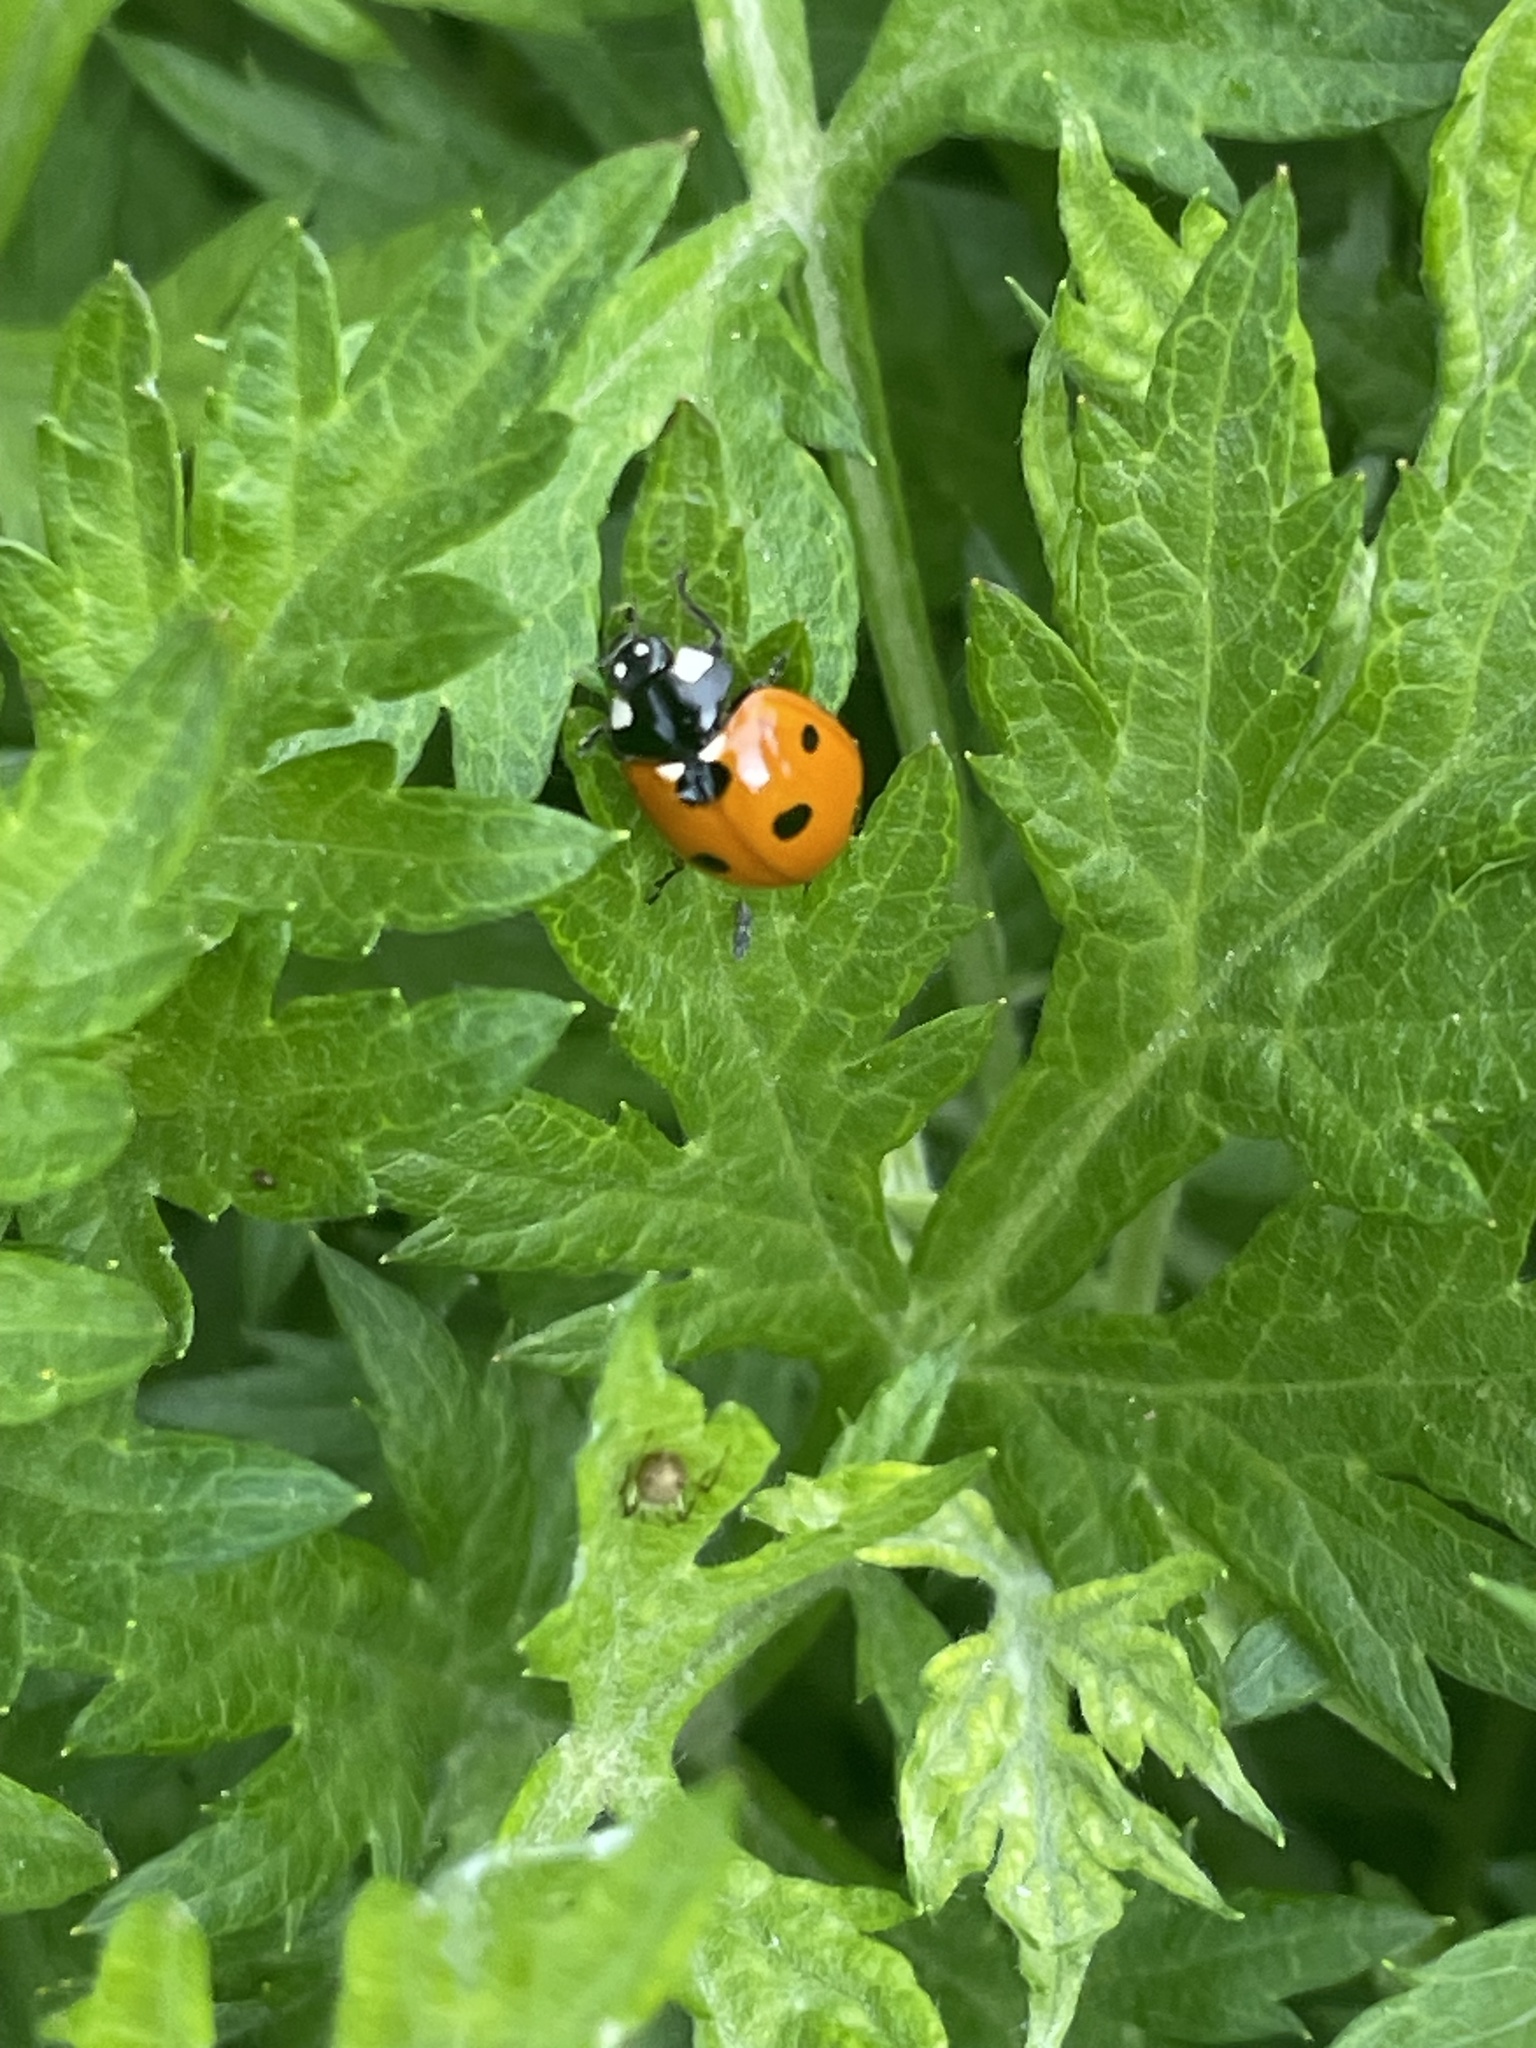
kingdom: Animalia
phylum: Arthropoda
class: Insecta
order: Coleoptera
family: Coccinellidae
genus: Coccinella
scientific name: Coccinella septempunctata
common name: Sevenspotted lady beetle
